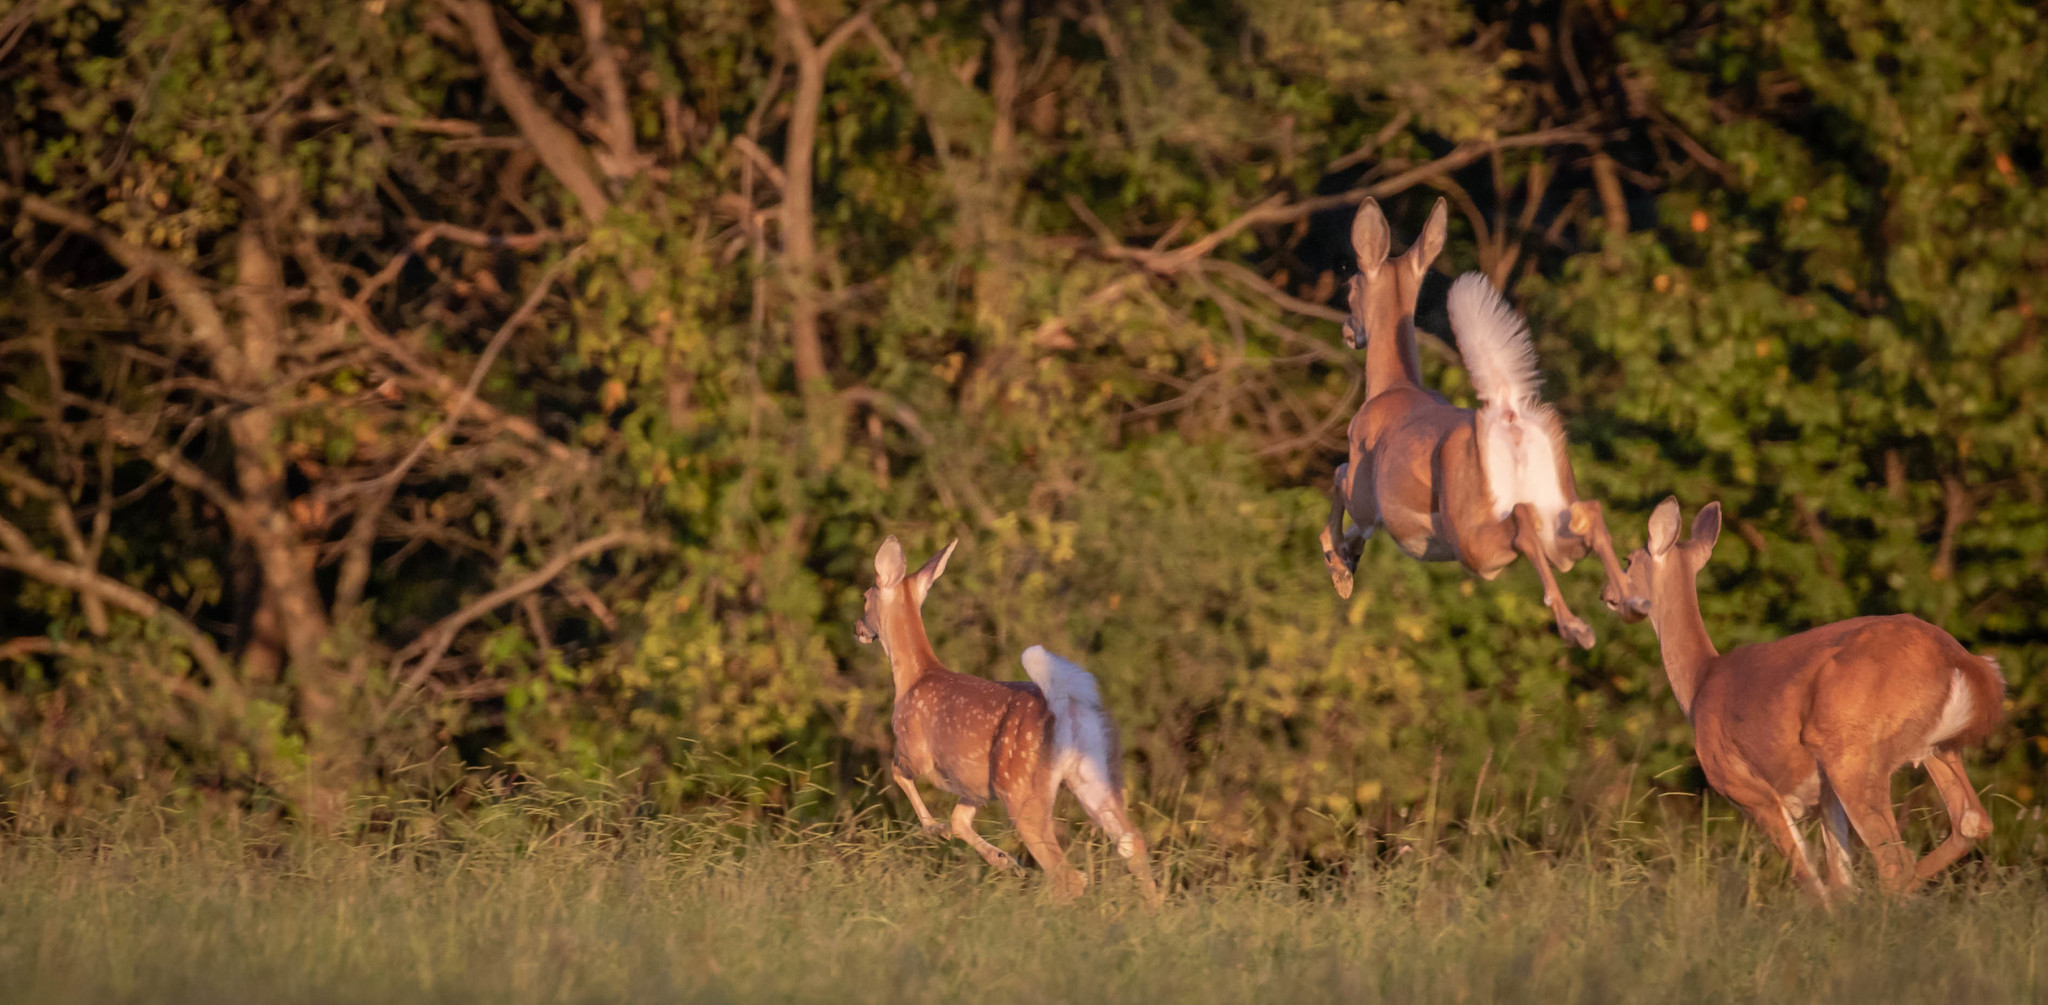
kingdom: Animalia
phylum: Chordata
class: Mammalia
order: Artiodactyla
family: Cervidae
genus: Odocoileus
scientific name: Odocoileus virginianus
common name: White-tailed deer
